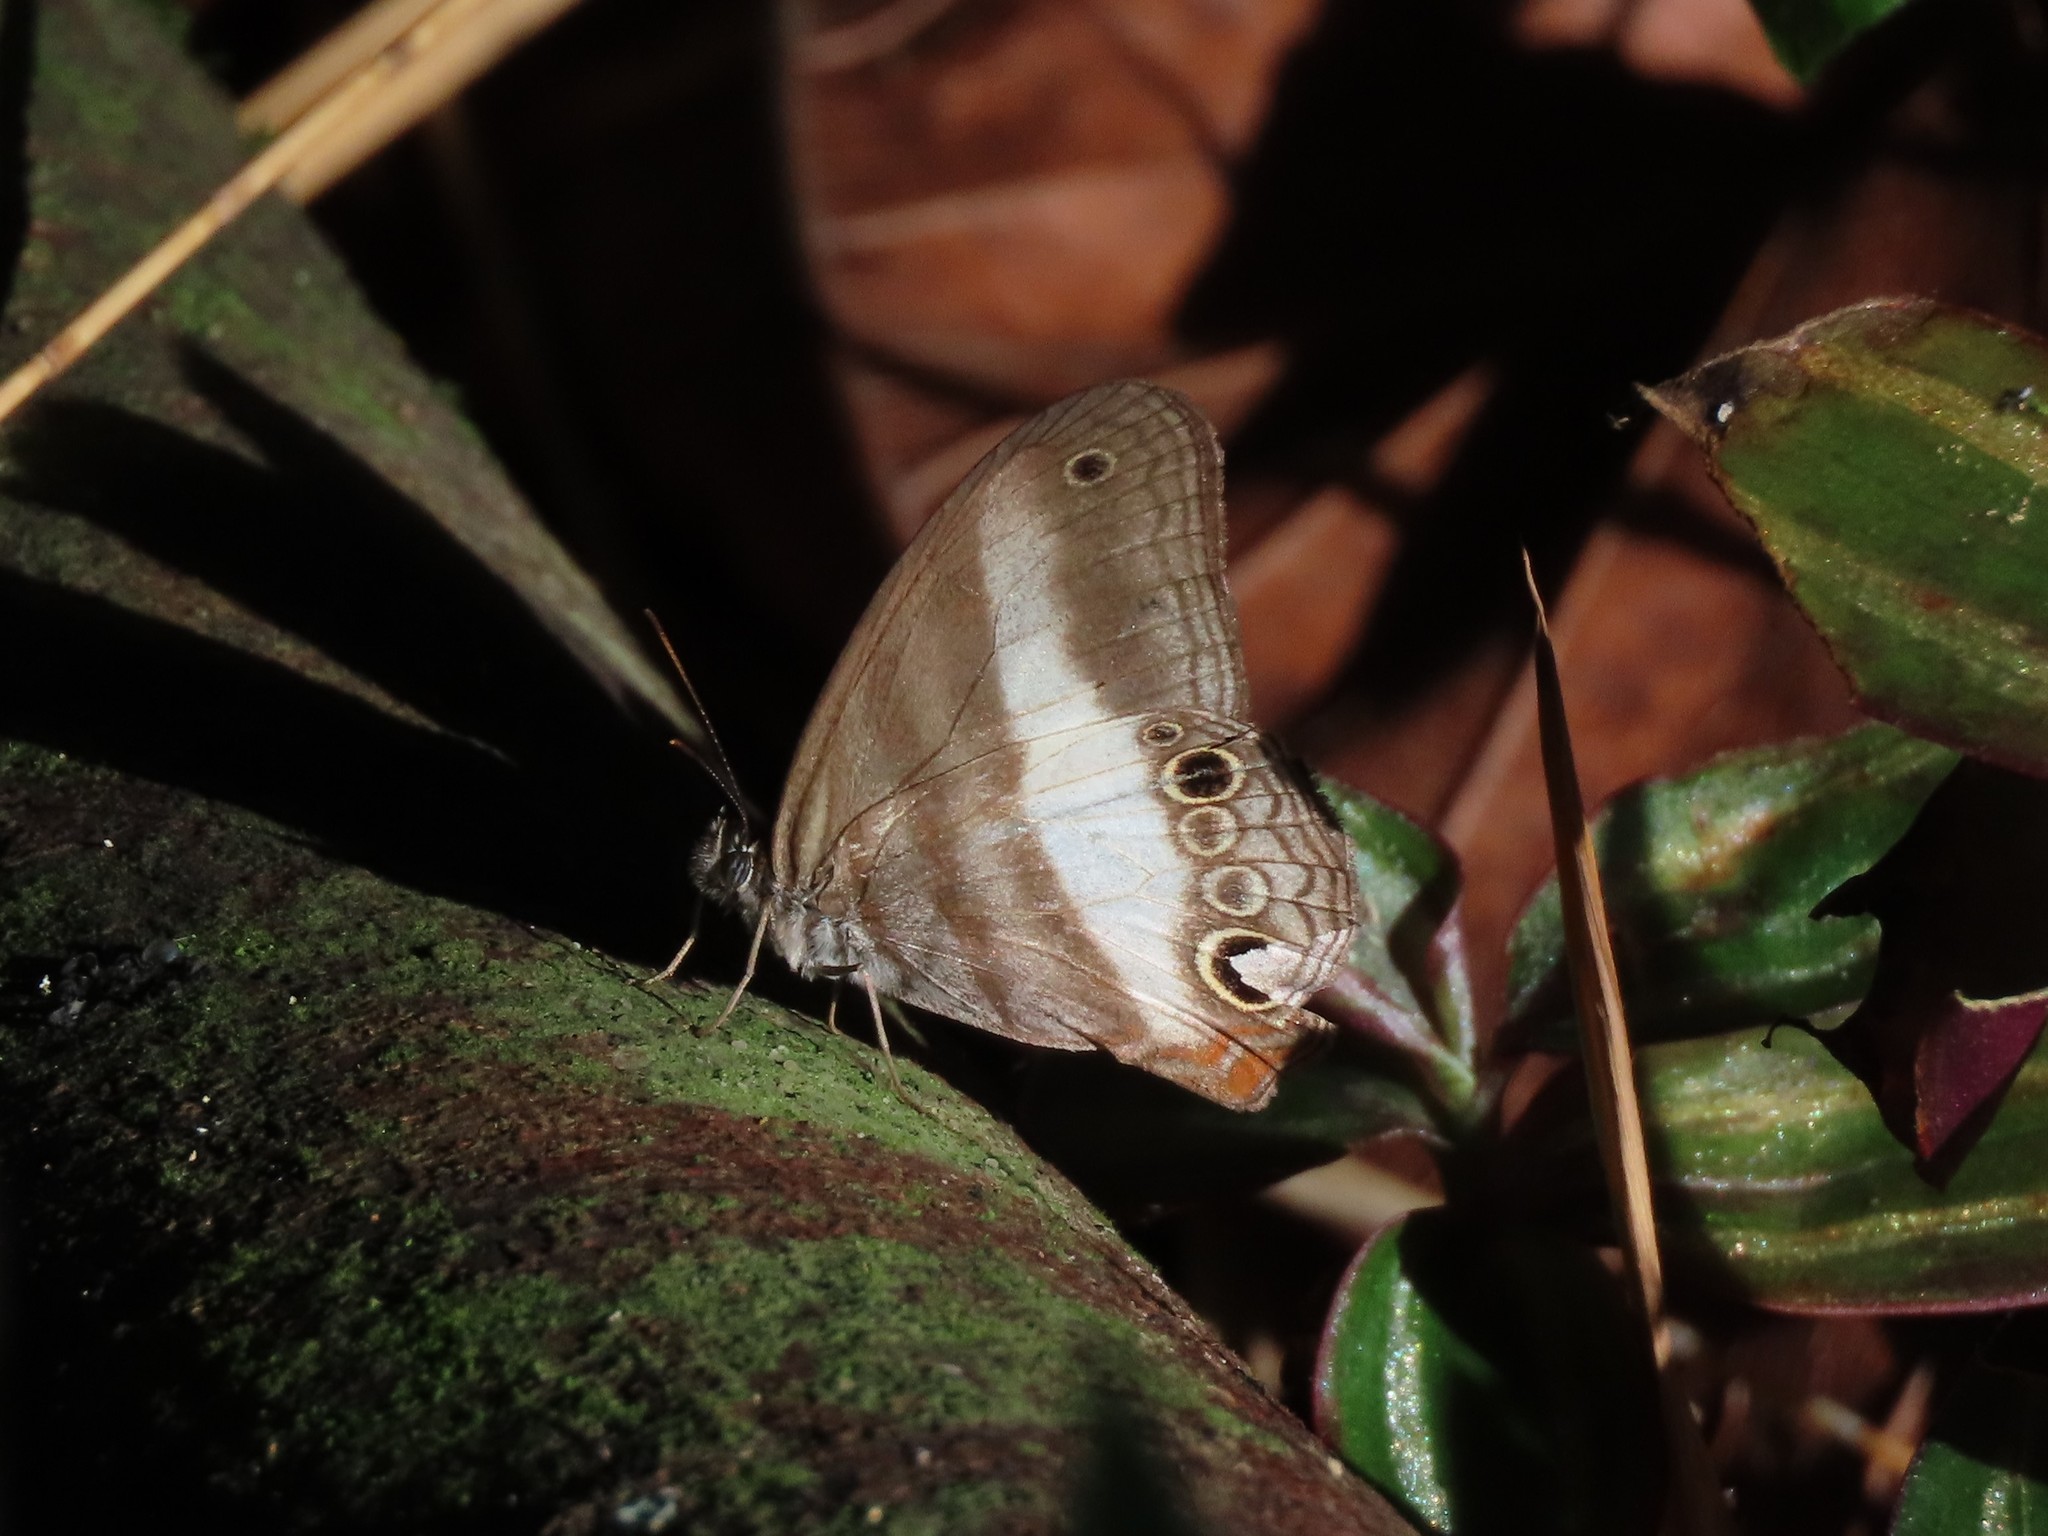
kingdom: Animalia
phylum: Arthropoda
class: Insecta
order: Lepidoptera
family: Nymphalidae
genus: Pareuptychia
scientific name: Pareuptychia metaleuca
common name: White-banded satyr
